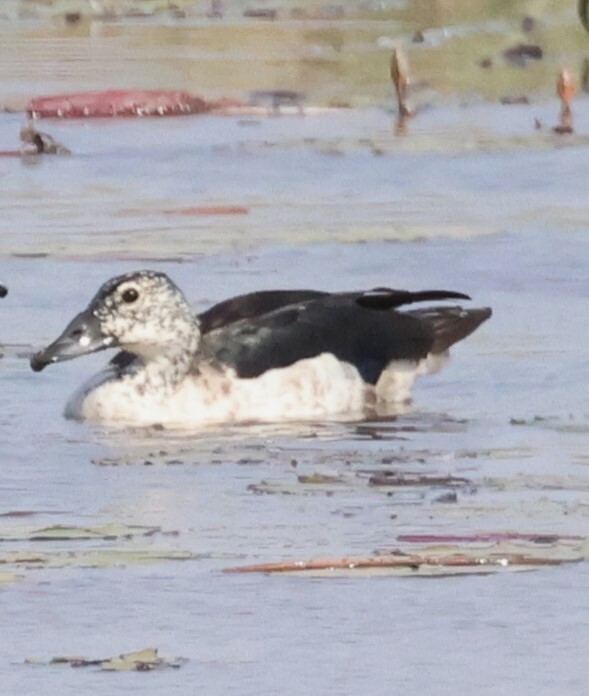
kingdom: Animalia
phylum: Chordata
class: Aves
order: Anseriformes
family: Anatidae
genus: Sarkidiornis
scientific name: Sarkidiornis melanotos
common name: Comb duck
